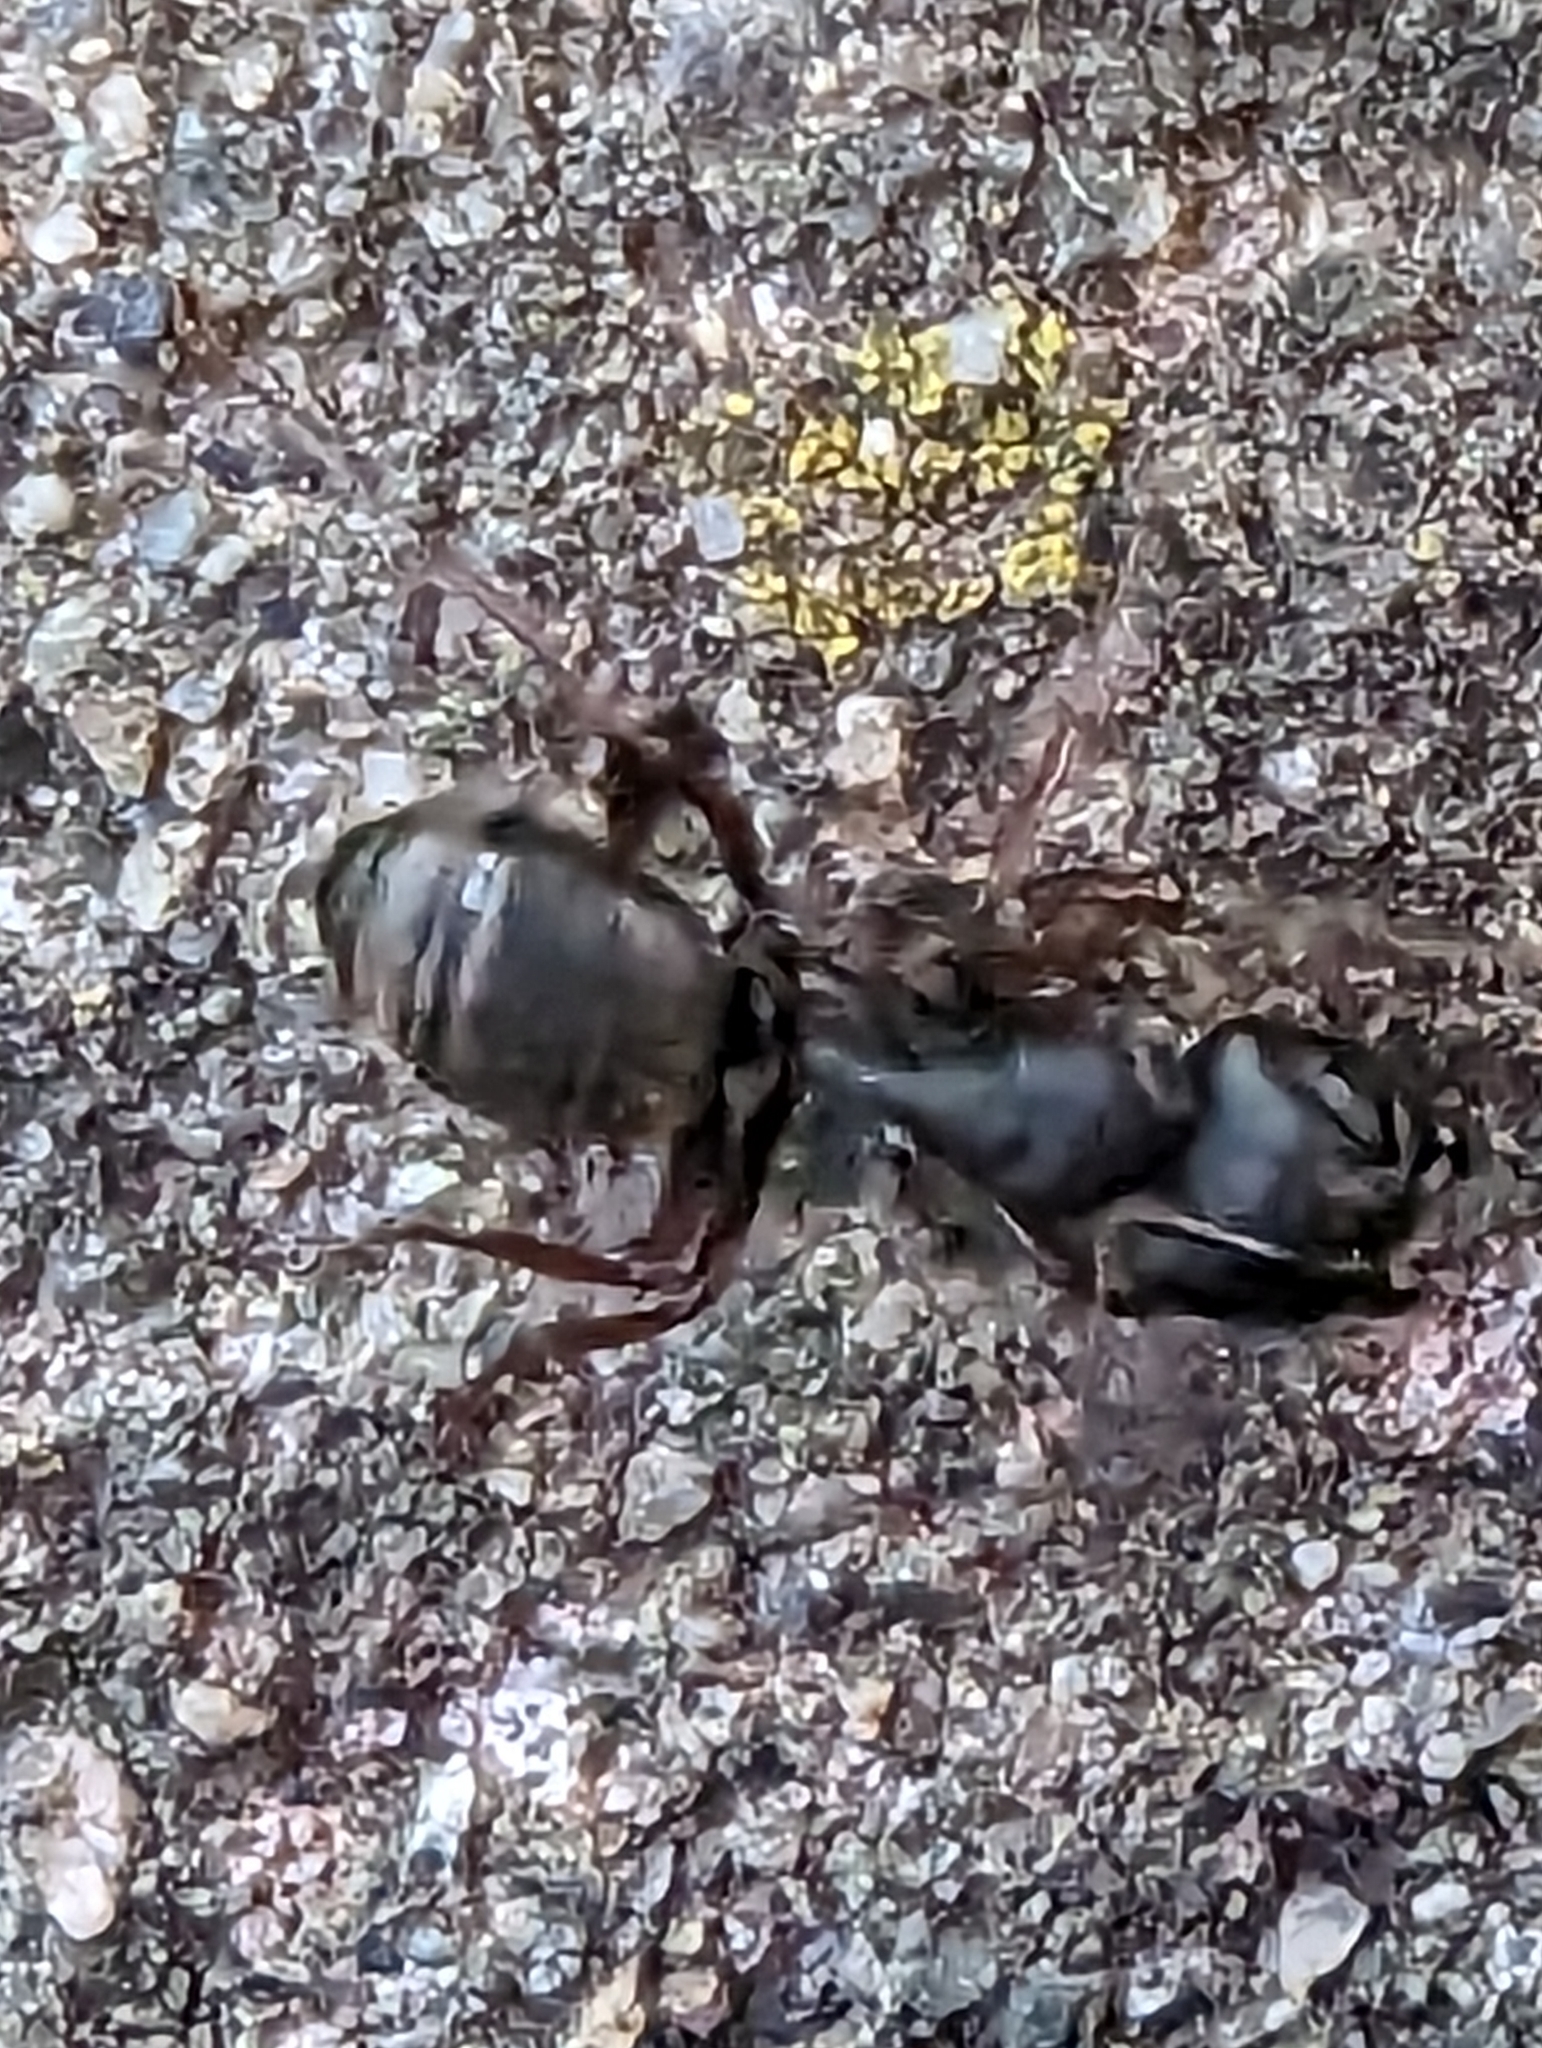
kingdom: Animalia
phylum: Arthropoda
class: Insecta
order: Hymenoptera
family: Formicidae
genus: Camponotus
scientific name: Camponotus modoc
